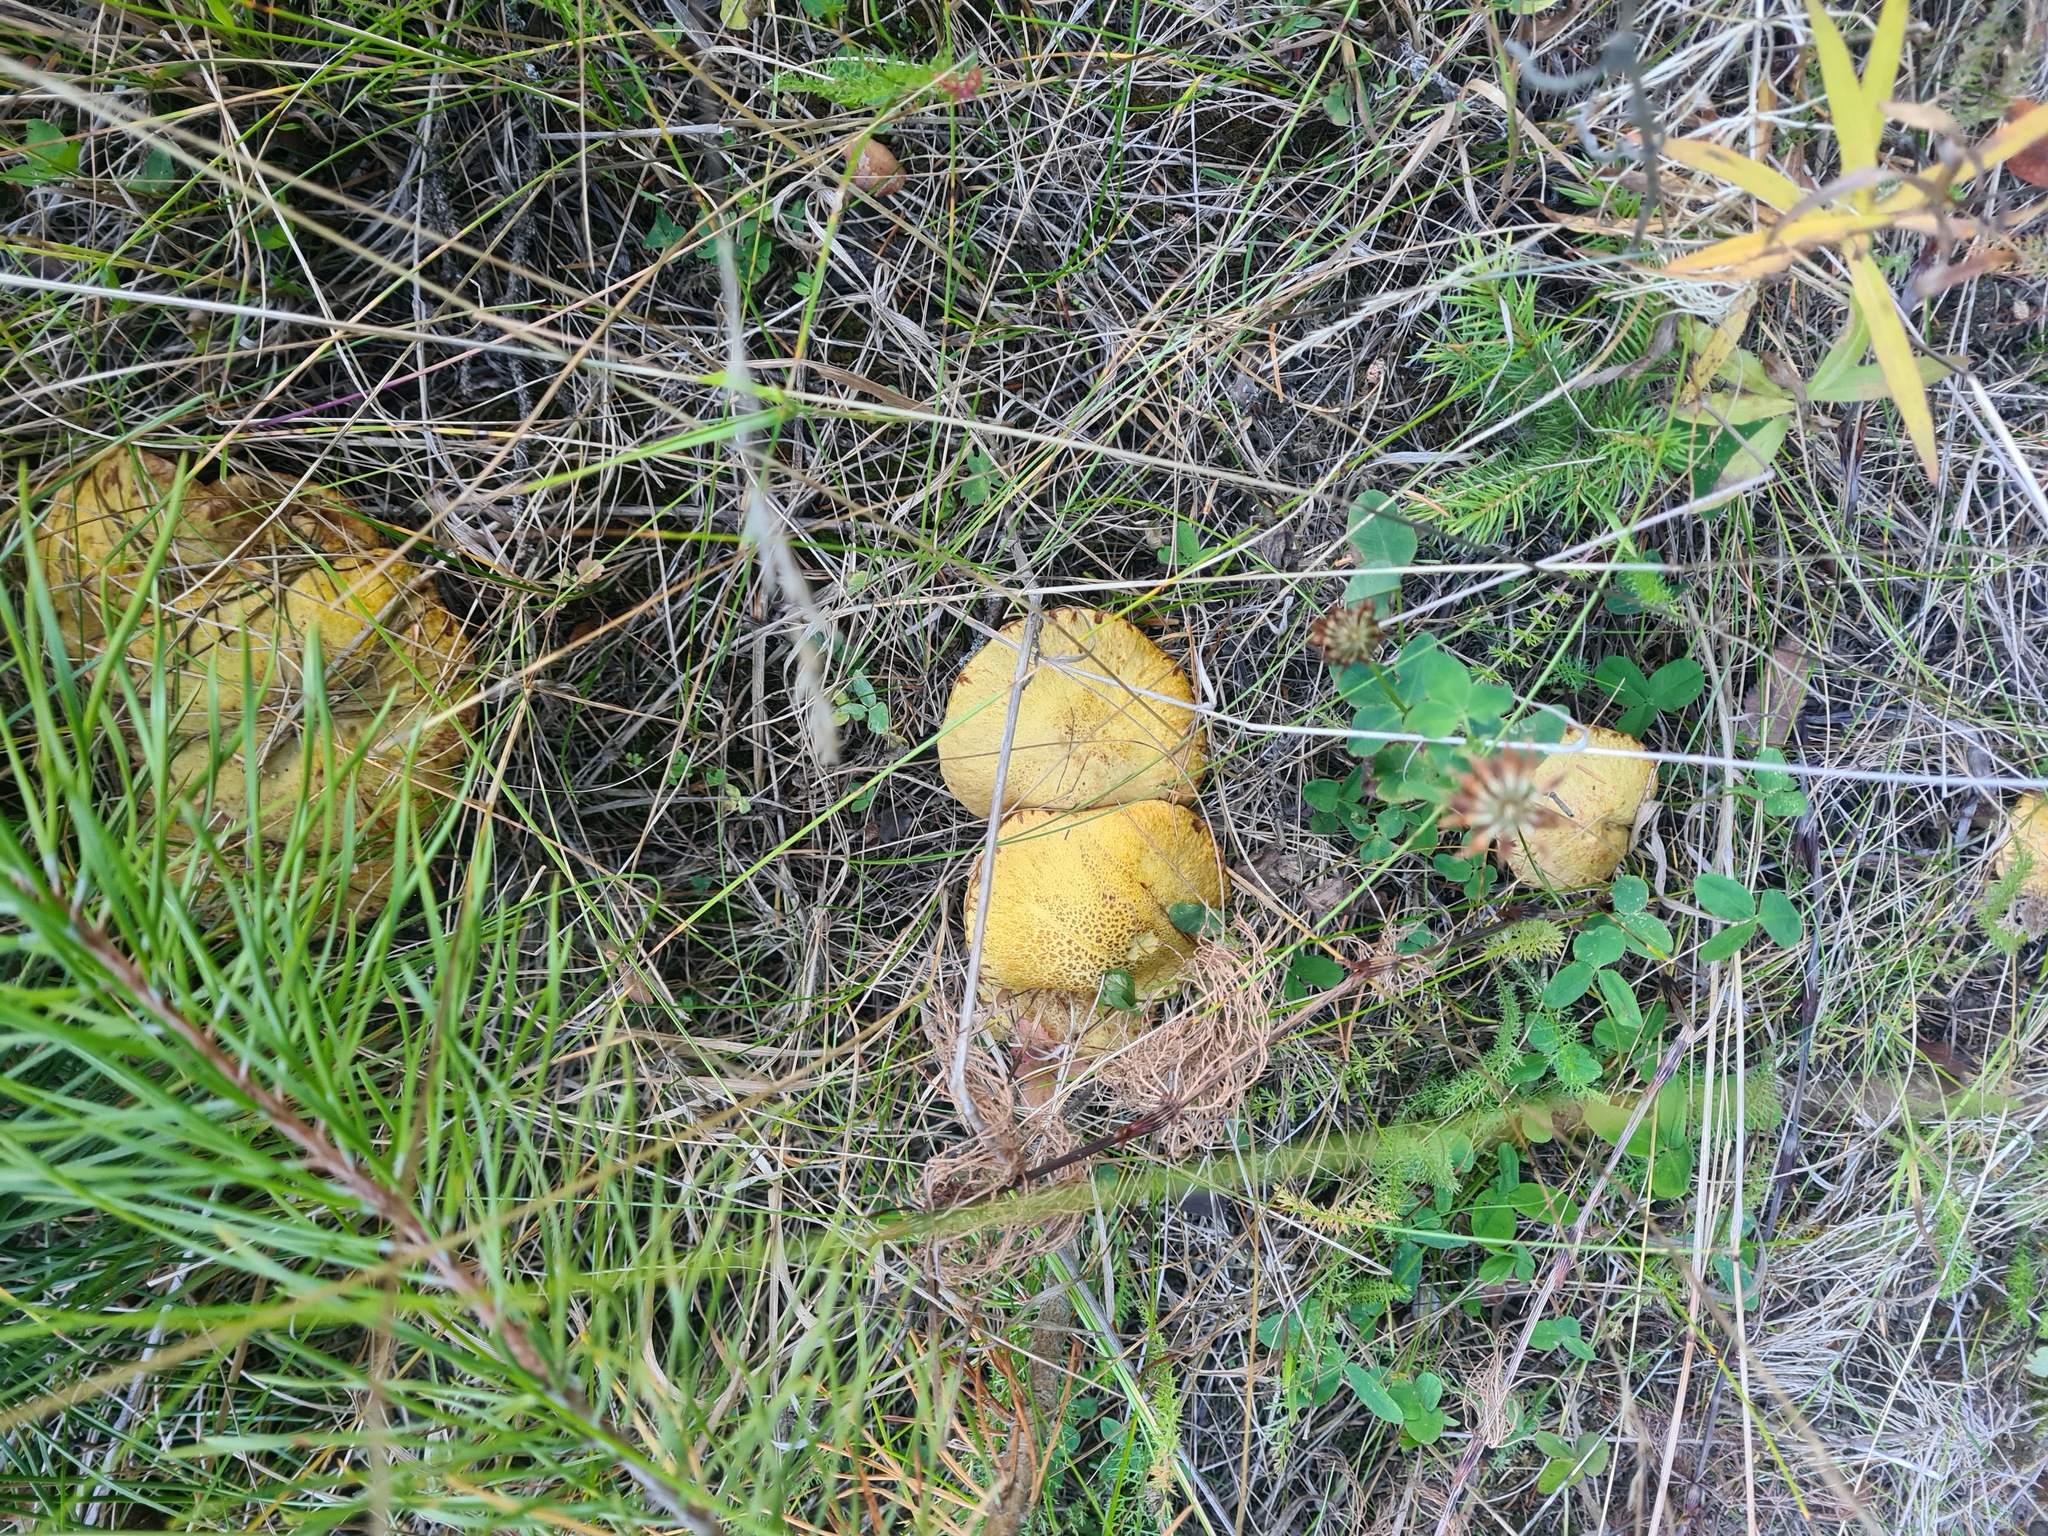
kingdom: Fungi
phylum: Basidiomycota
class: Agaricomycetes
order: Boletales
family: Suillaceae
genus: Suillus
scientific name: Suillus americanus
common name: Chicken fat mushroom
